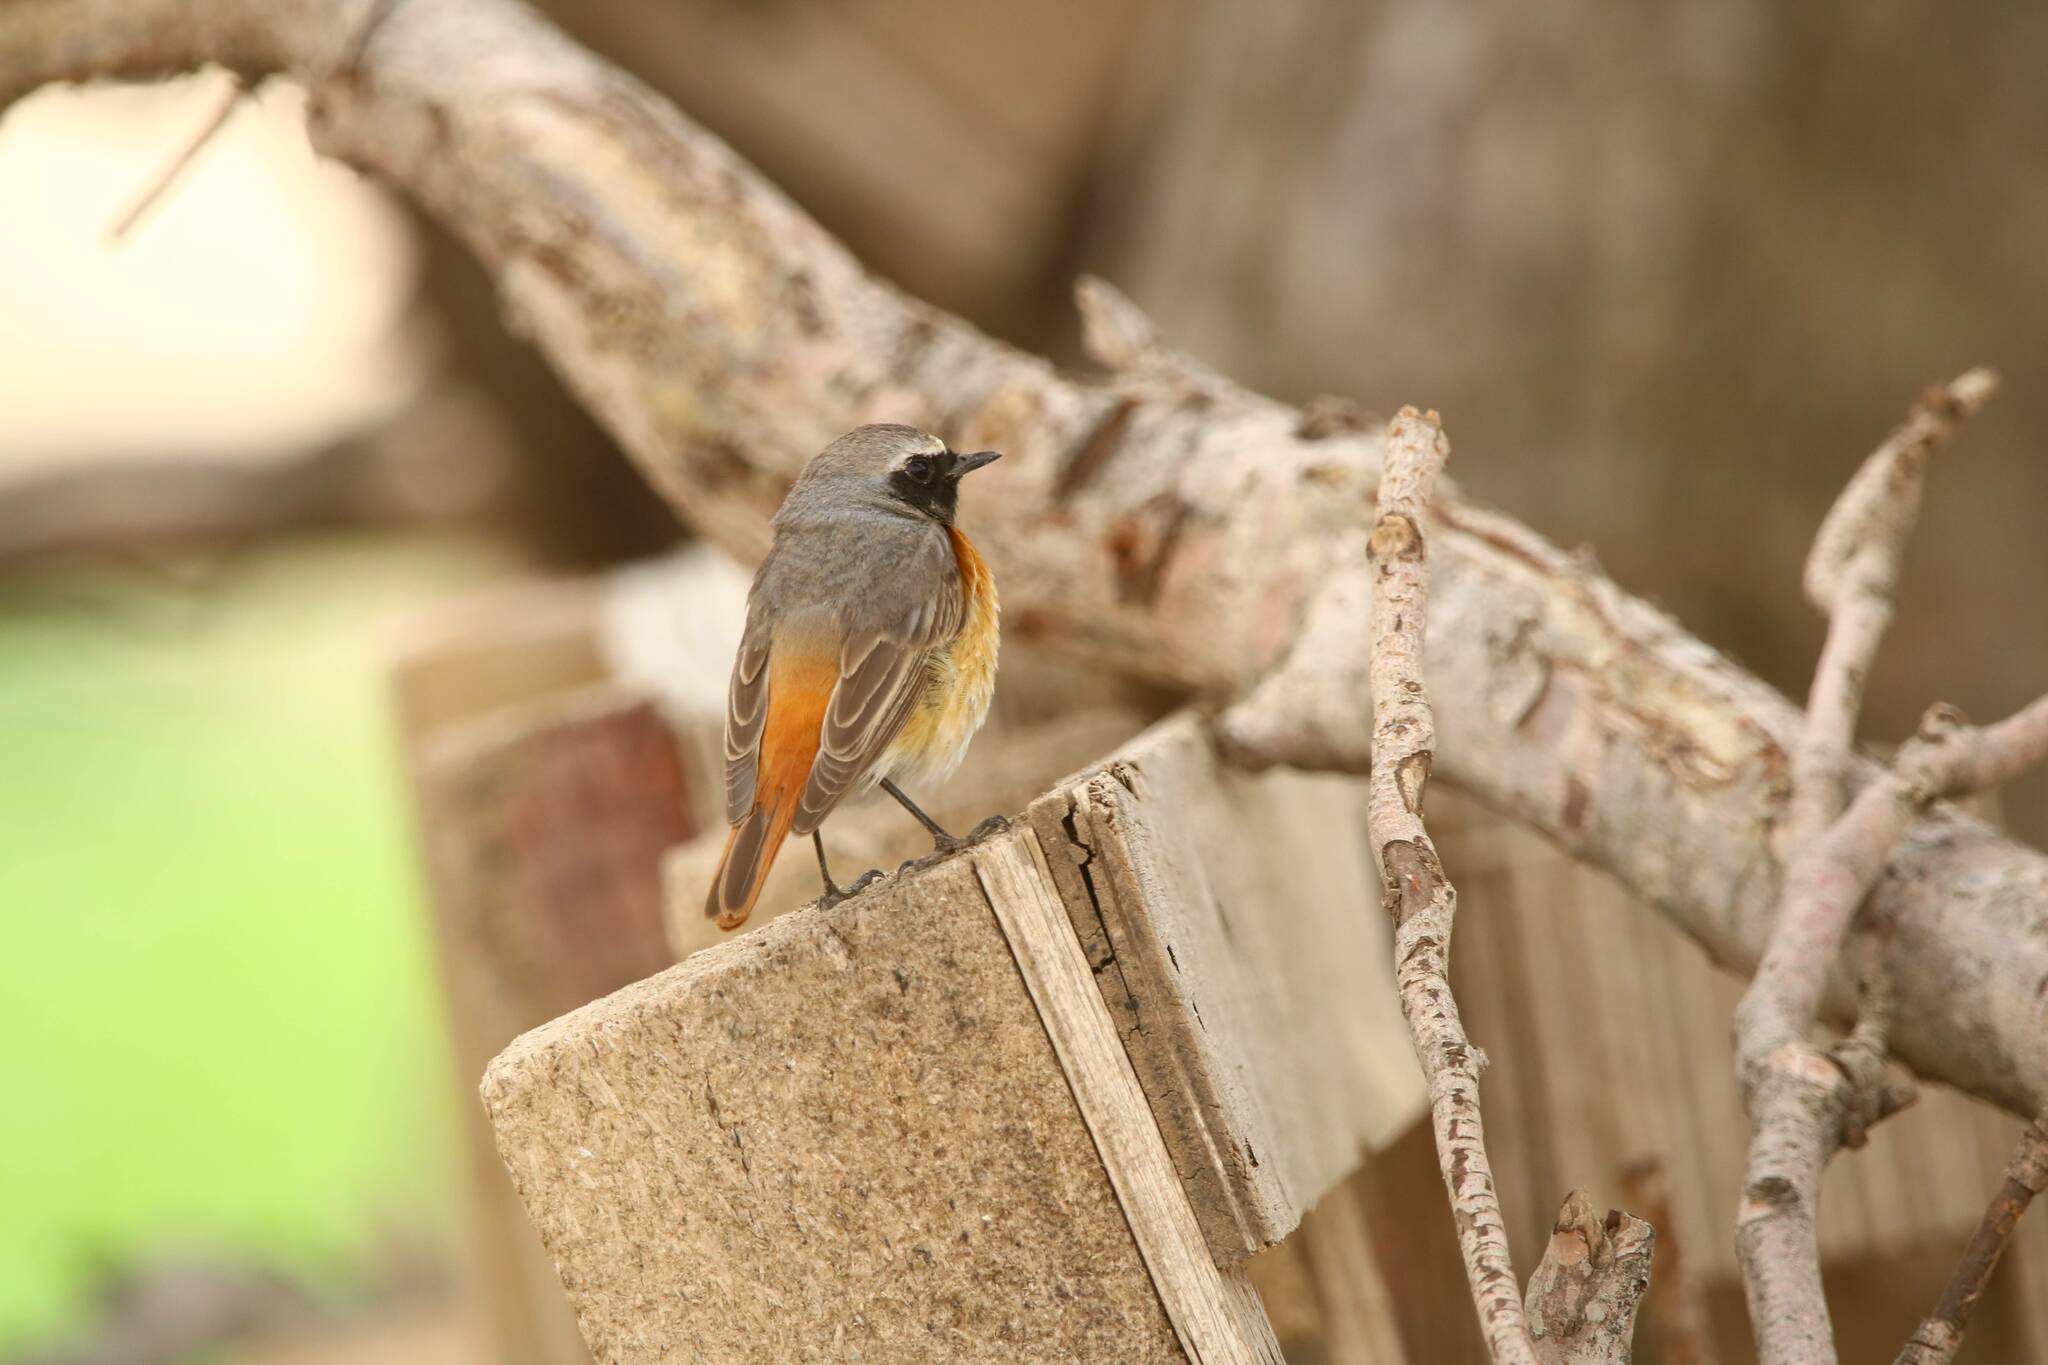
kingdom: Animalia
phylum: Chordata
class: Aves
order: Passeriformes
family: Muscicapidae
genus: Phoenicurus
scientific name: Phoenicurus phoenicurus
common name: Common redstart
